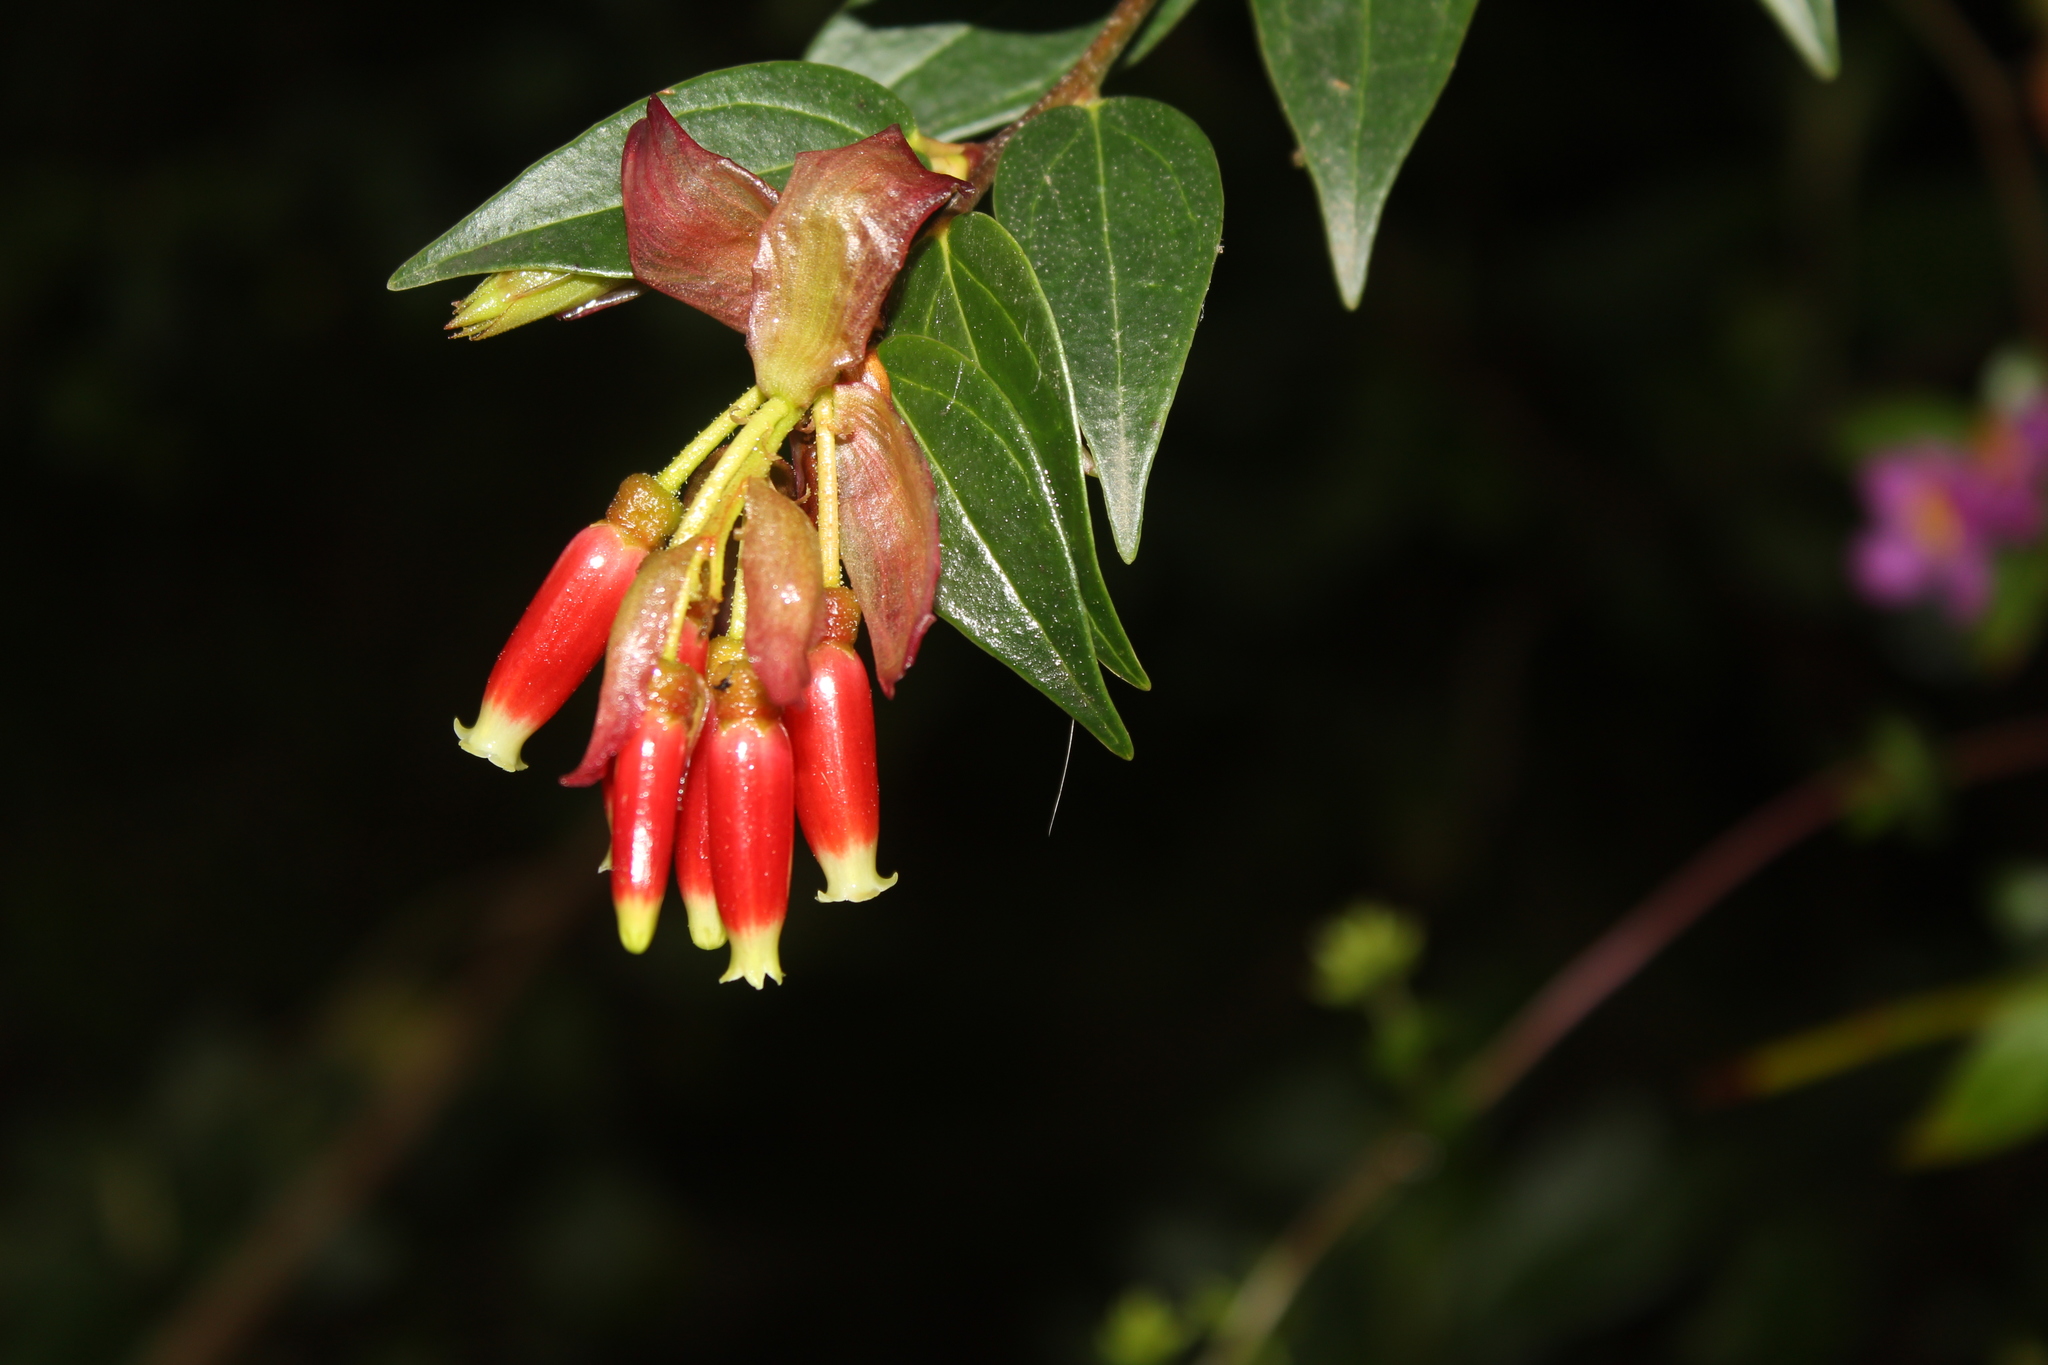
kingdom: Plantae
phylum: Tracheophyta
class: Magnoliopsida
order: Ericales
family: Ericaceae
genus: Cavendishia
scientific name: Cavendishia bracteata
